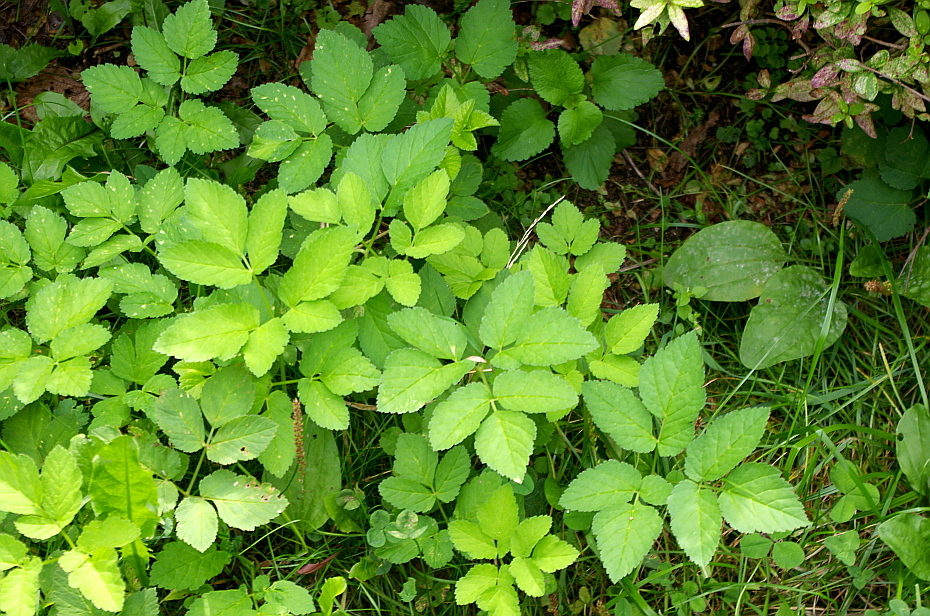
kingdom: Plantae
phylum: Tracheophyta
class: Magnoliopsida
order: Apiales
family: Apiaceae
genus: Aegopodium
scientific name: Aegopodium podagraria
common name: Ground-elder
